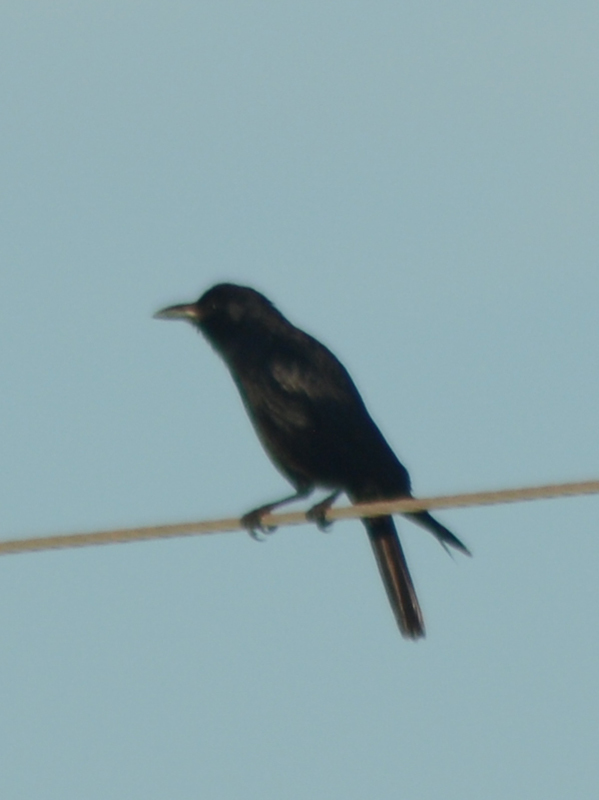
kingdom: Animalia
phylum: Chordata
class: Aves
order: Passeriformes
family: Corvidae
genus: Corvus
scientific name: Corvus sinaloae
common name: Sinaloa crow
